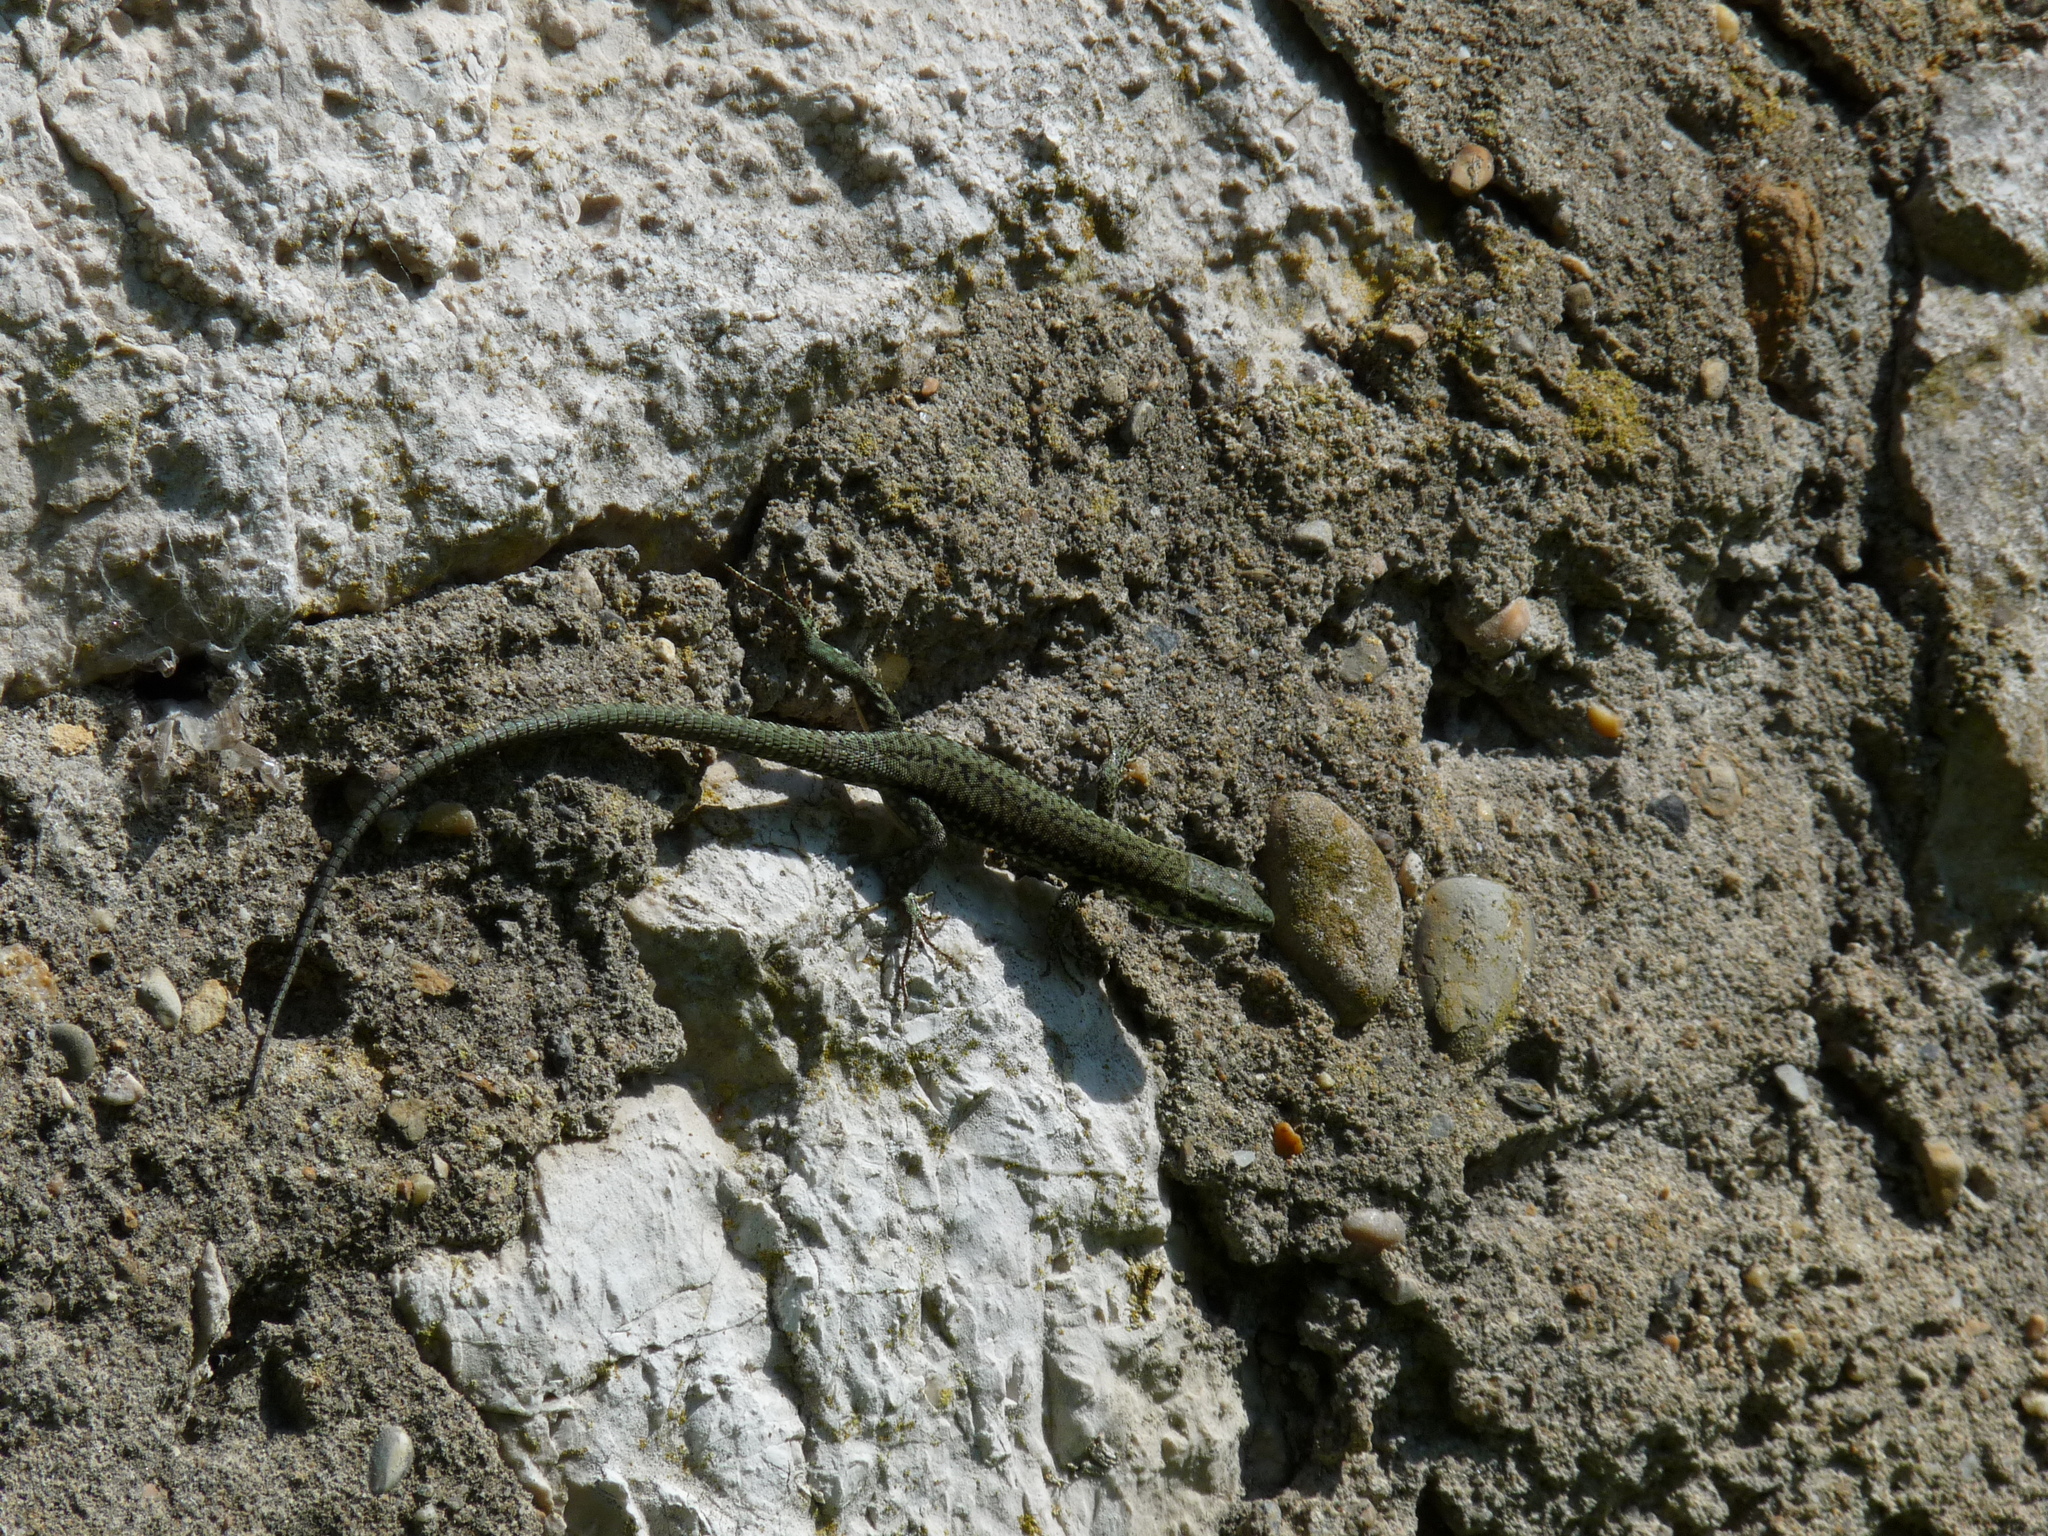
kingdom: Animalia
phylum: Chordata
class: Squamata
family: Lacertidae
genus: Podarcis
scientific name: Podarcis muralis
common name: Common wall lizard
